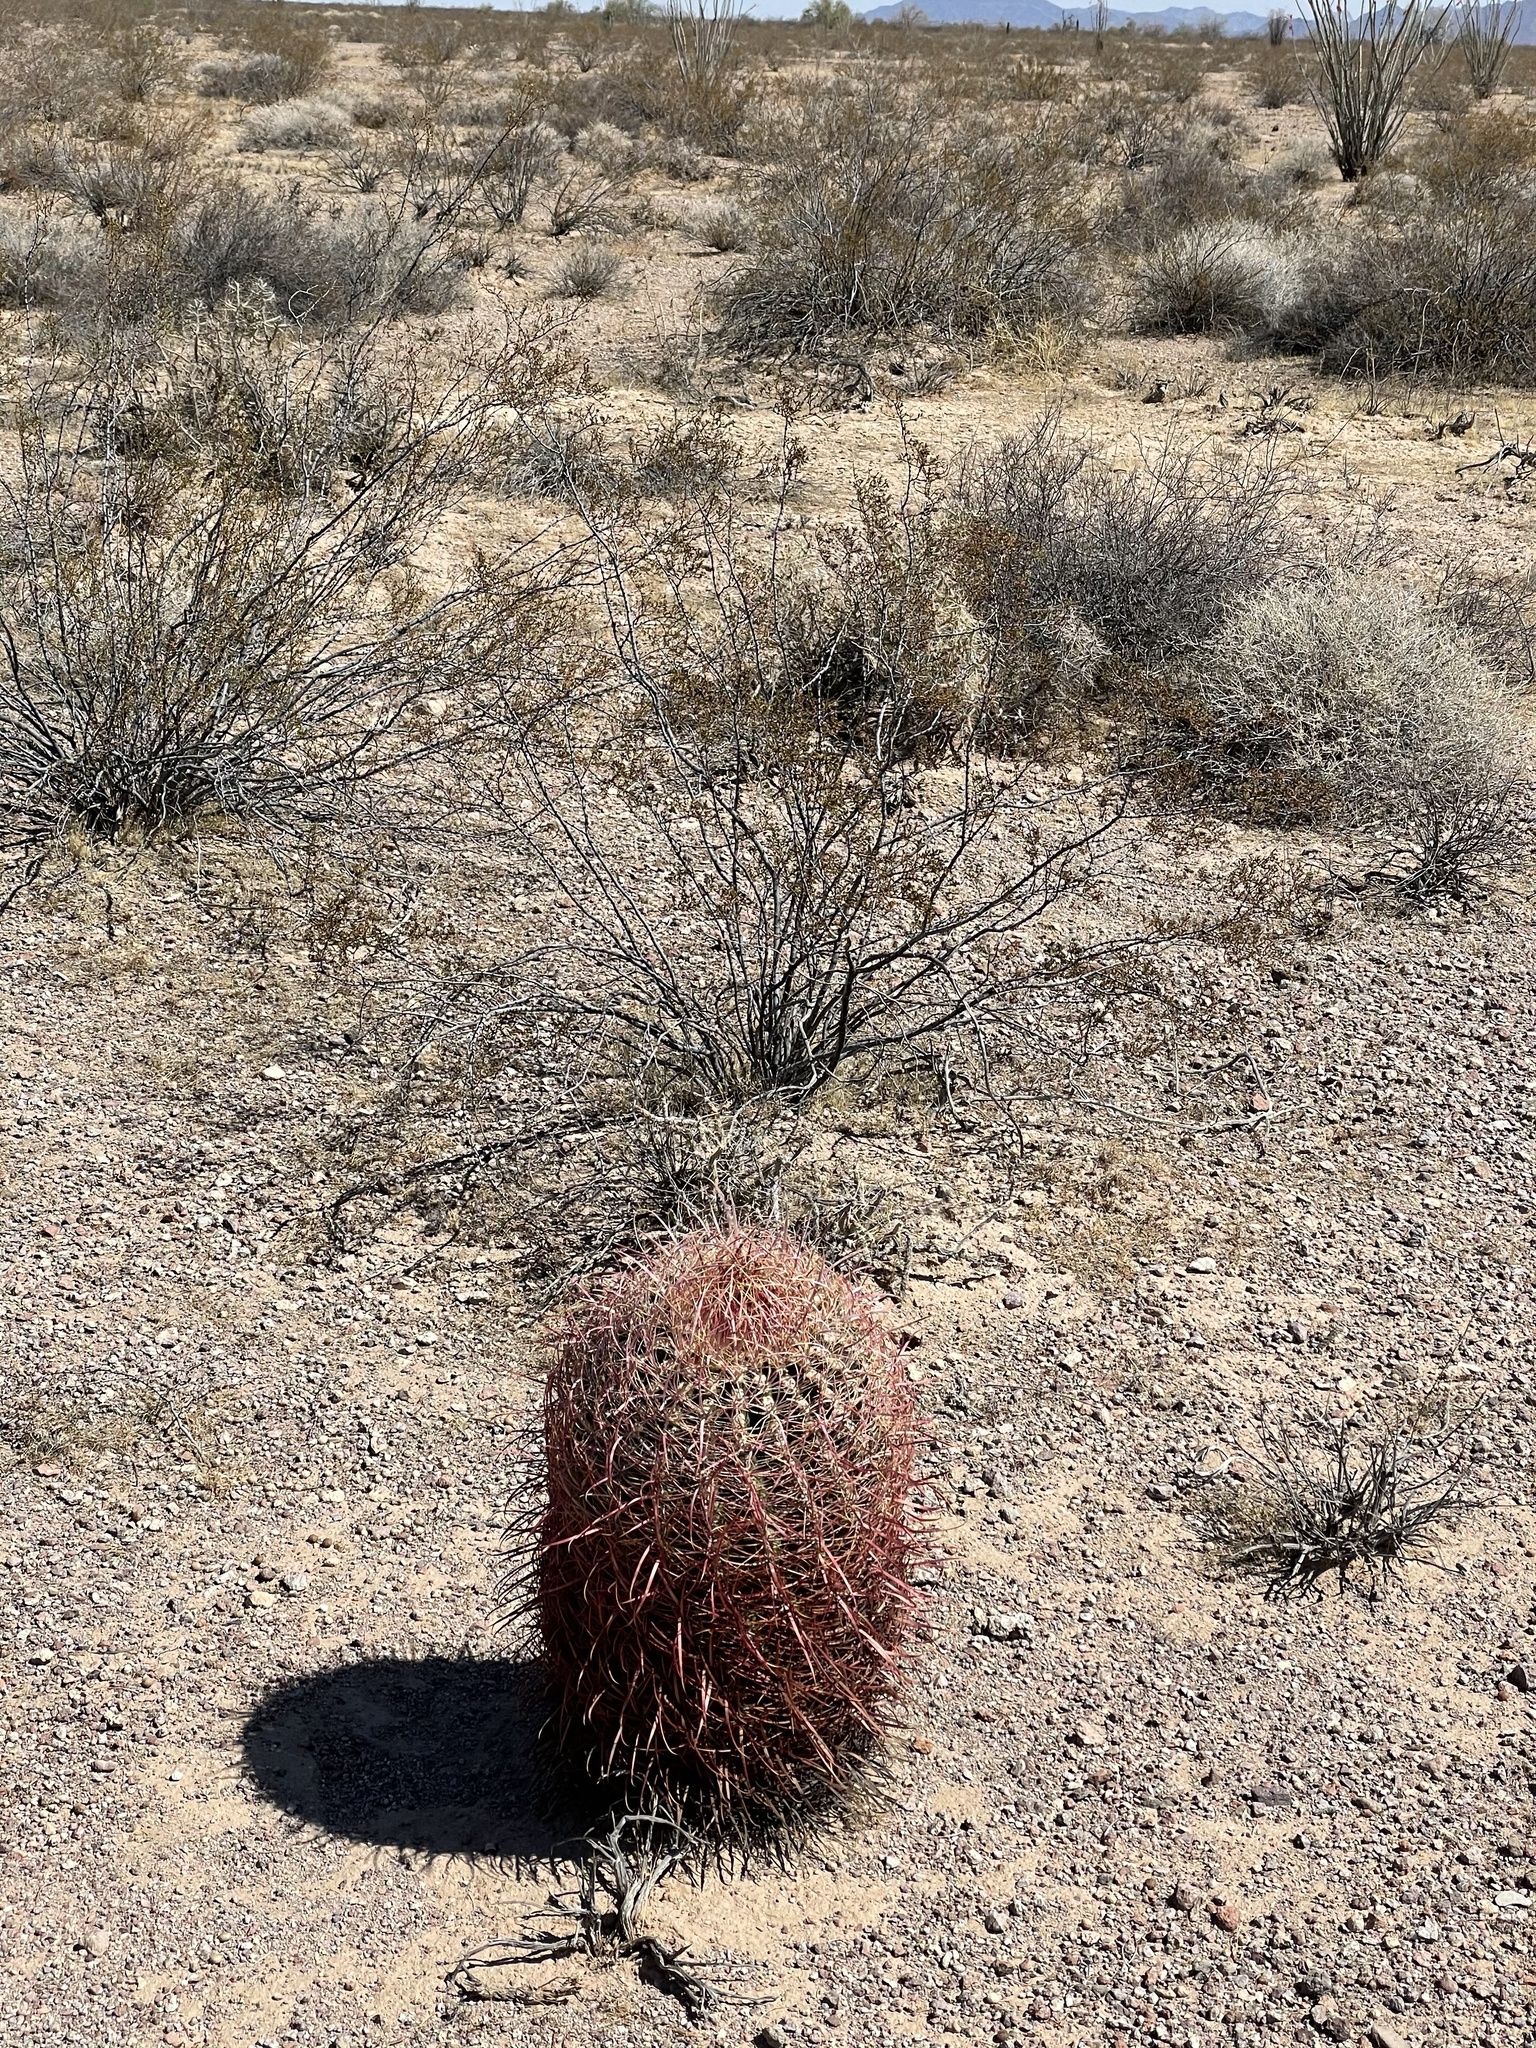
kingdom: Plantae
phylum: Tracheophyta
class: Magnoliopsida
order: Caryophyllales
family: Cactaceae
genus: Ferocactus
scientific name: Ferocactus cylindraceus
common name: California barrel cactus
